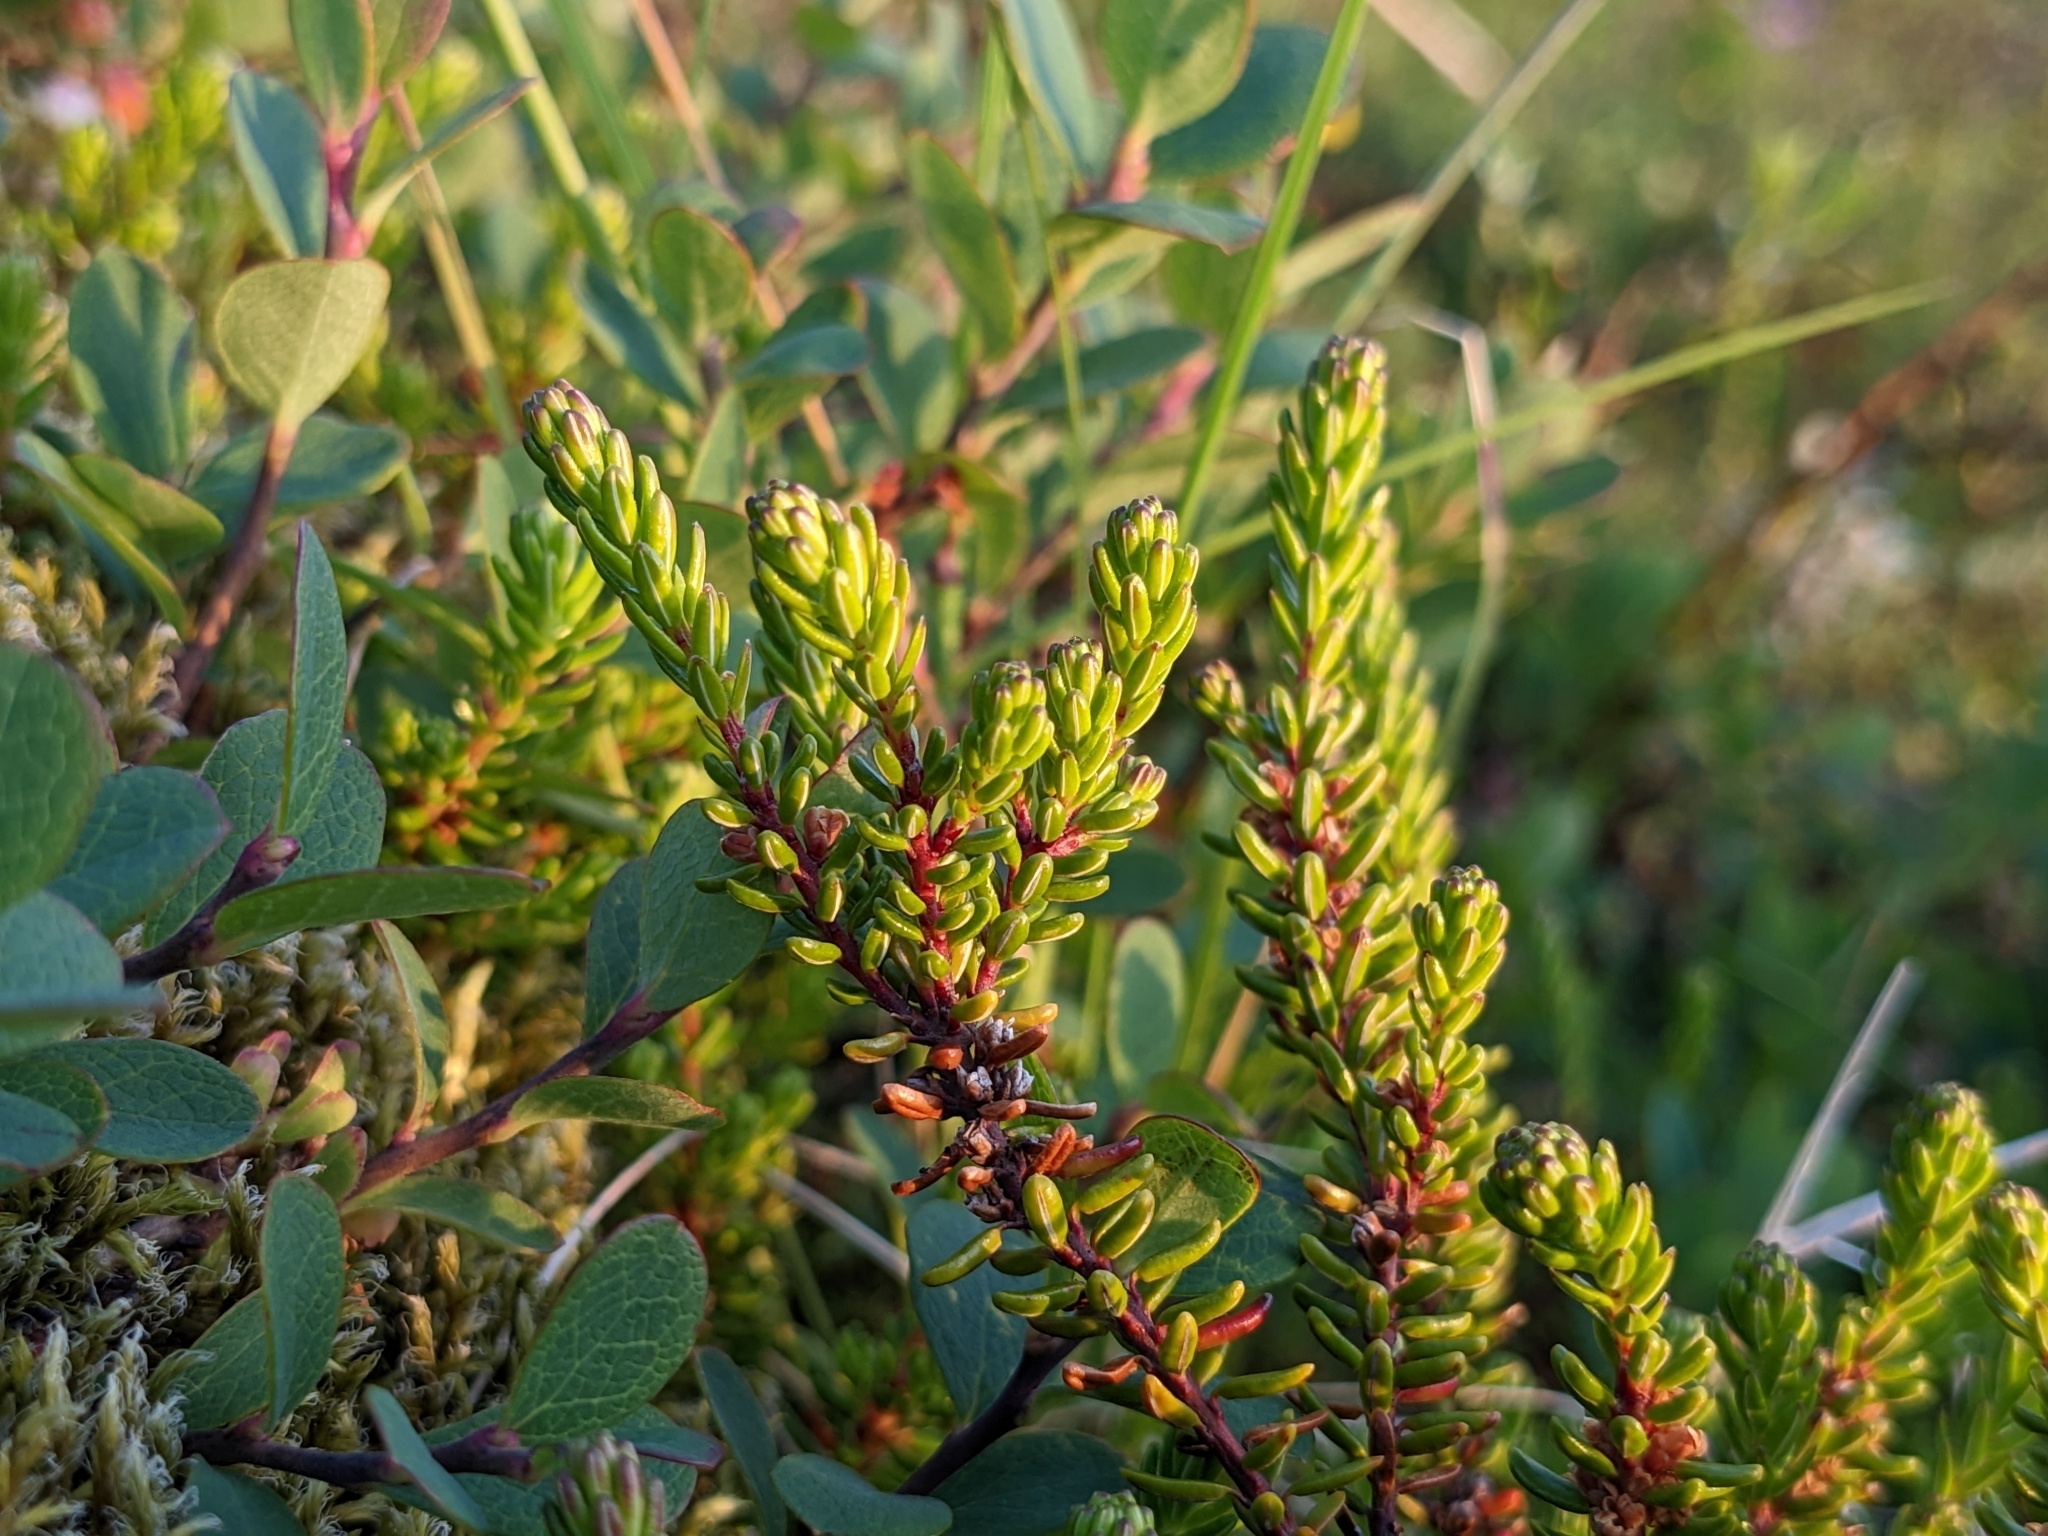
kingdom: Plantae
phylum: Tracheophyta
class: Magnoliopsida
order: Ericales
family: Ericaceae
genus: Empetrum
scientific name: Empetrum nigrum
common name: Black crowberry
